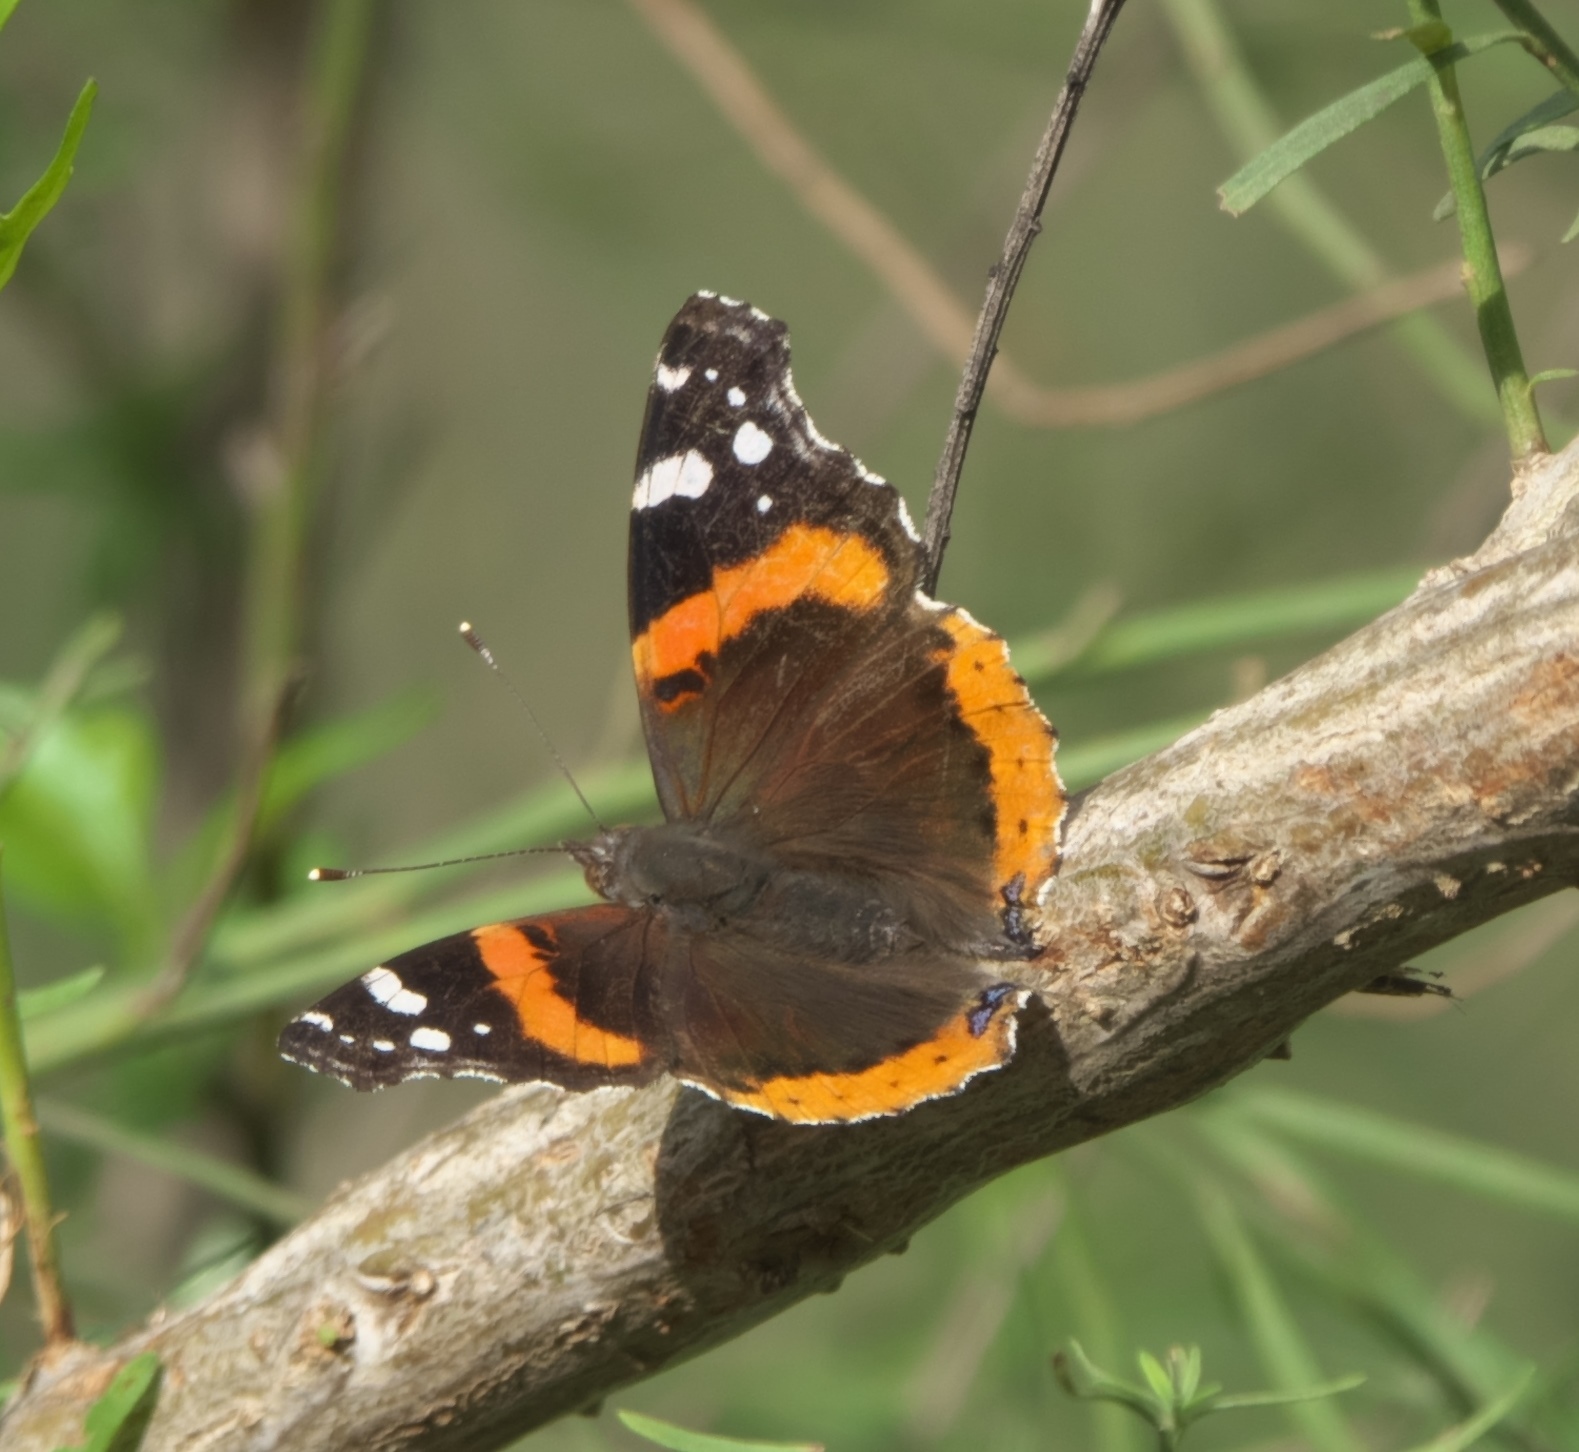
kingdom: Animalia
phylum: Arthropoda
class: Insecta
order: Lepidoptera
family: Nymphalidae
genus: Vanessa
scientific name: Vanessa atalanta
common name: Red admiral
